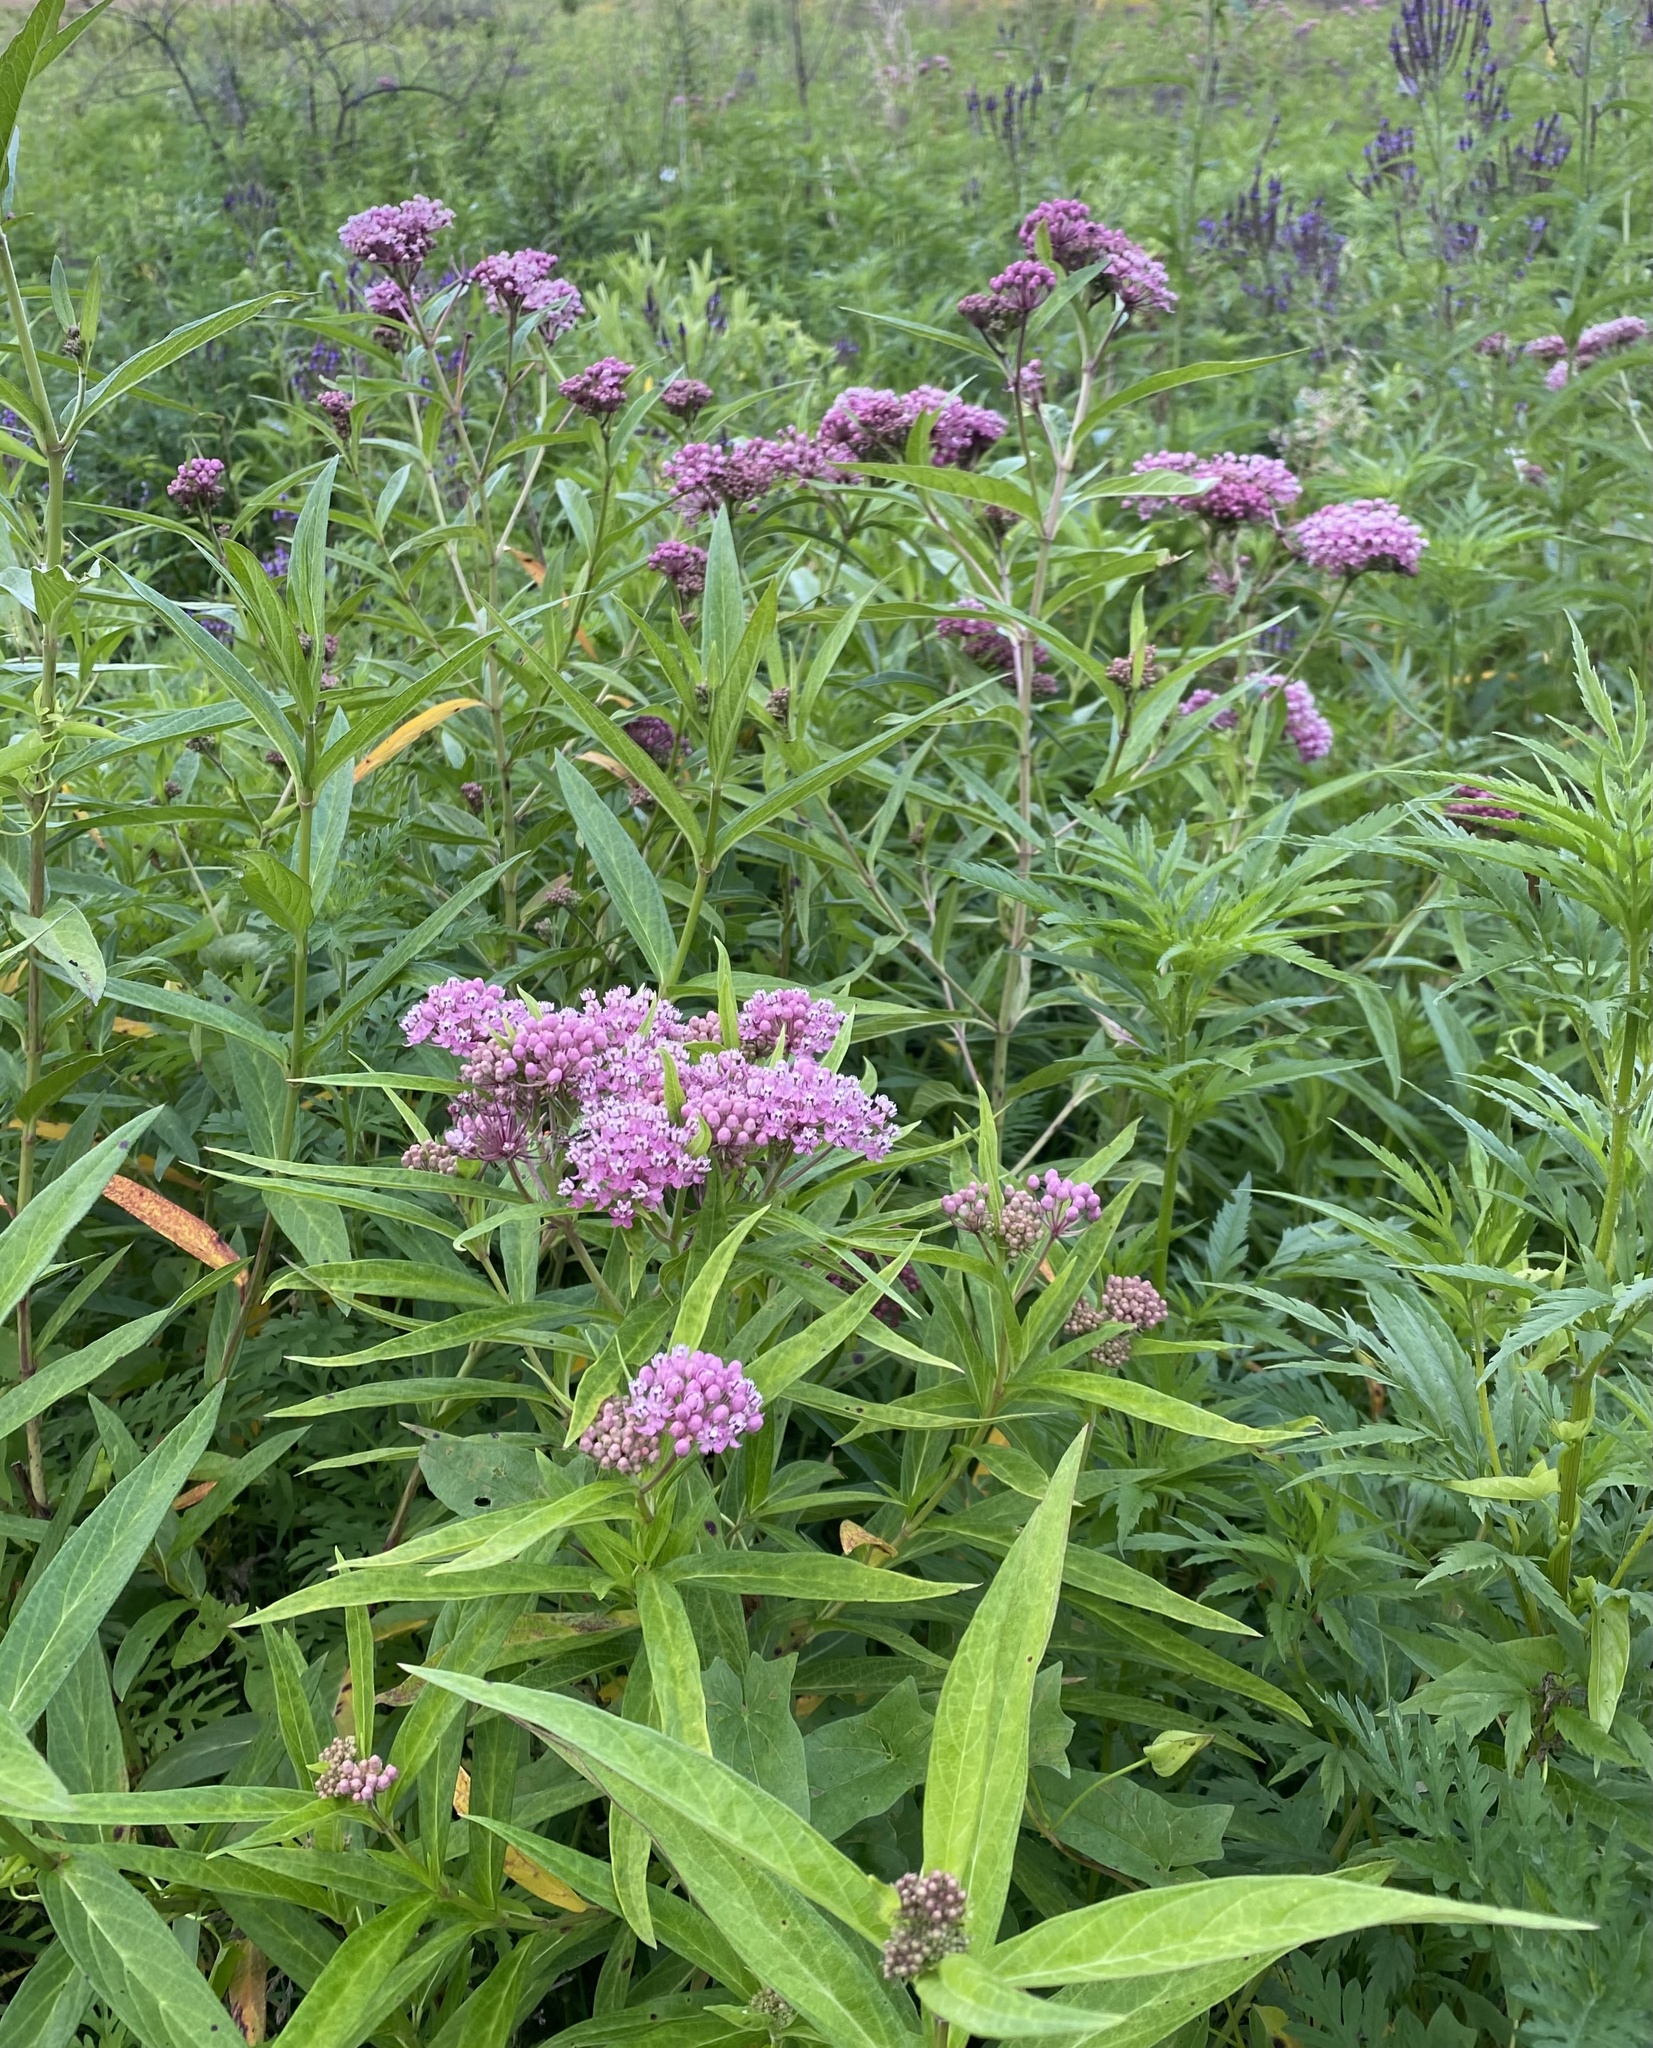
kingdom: Plantae
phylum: Tracheophyta
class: Magnoliopsida
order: Gentianales
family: Apocynaceae
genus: Asclepias
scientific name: Asclepias incarnata
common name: Swamp milkweed
